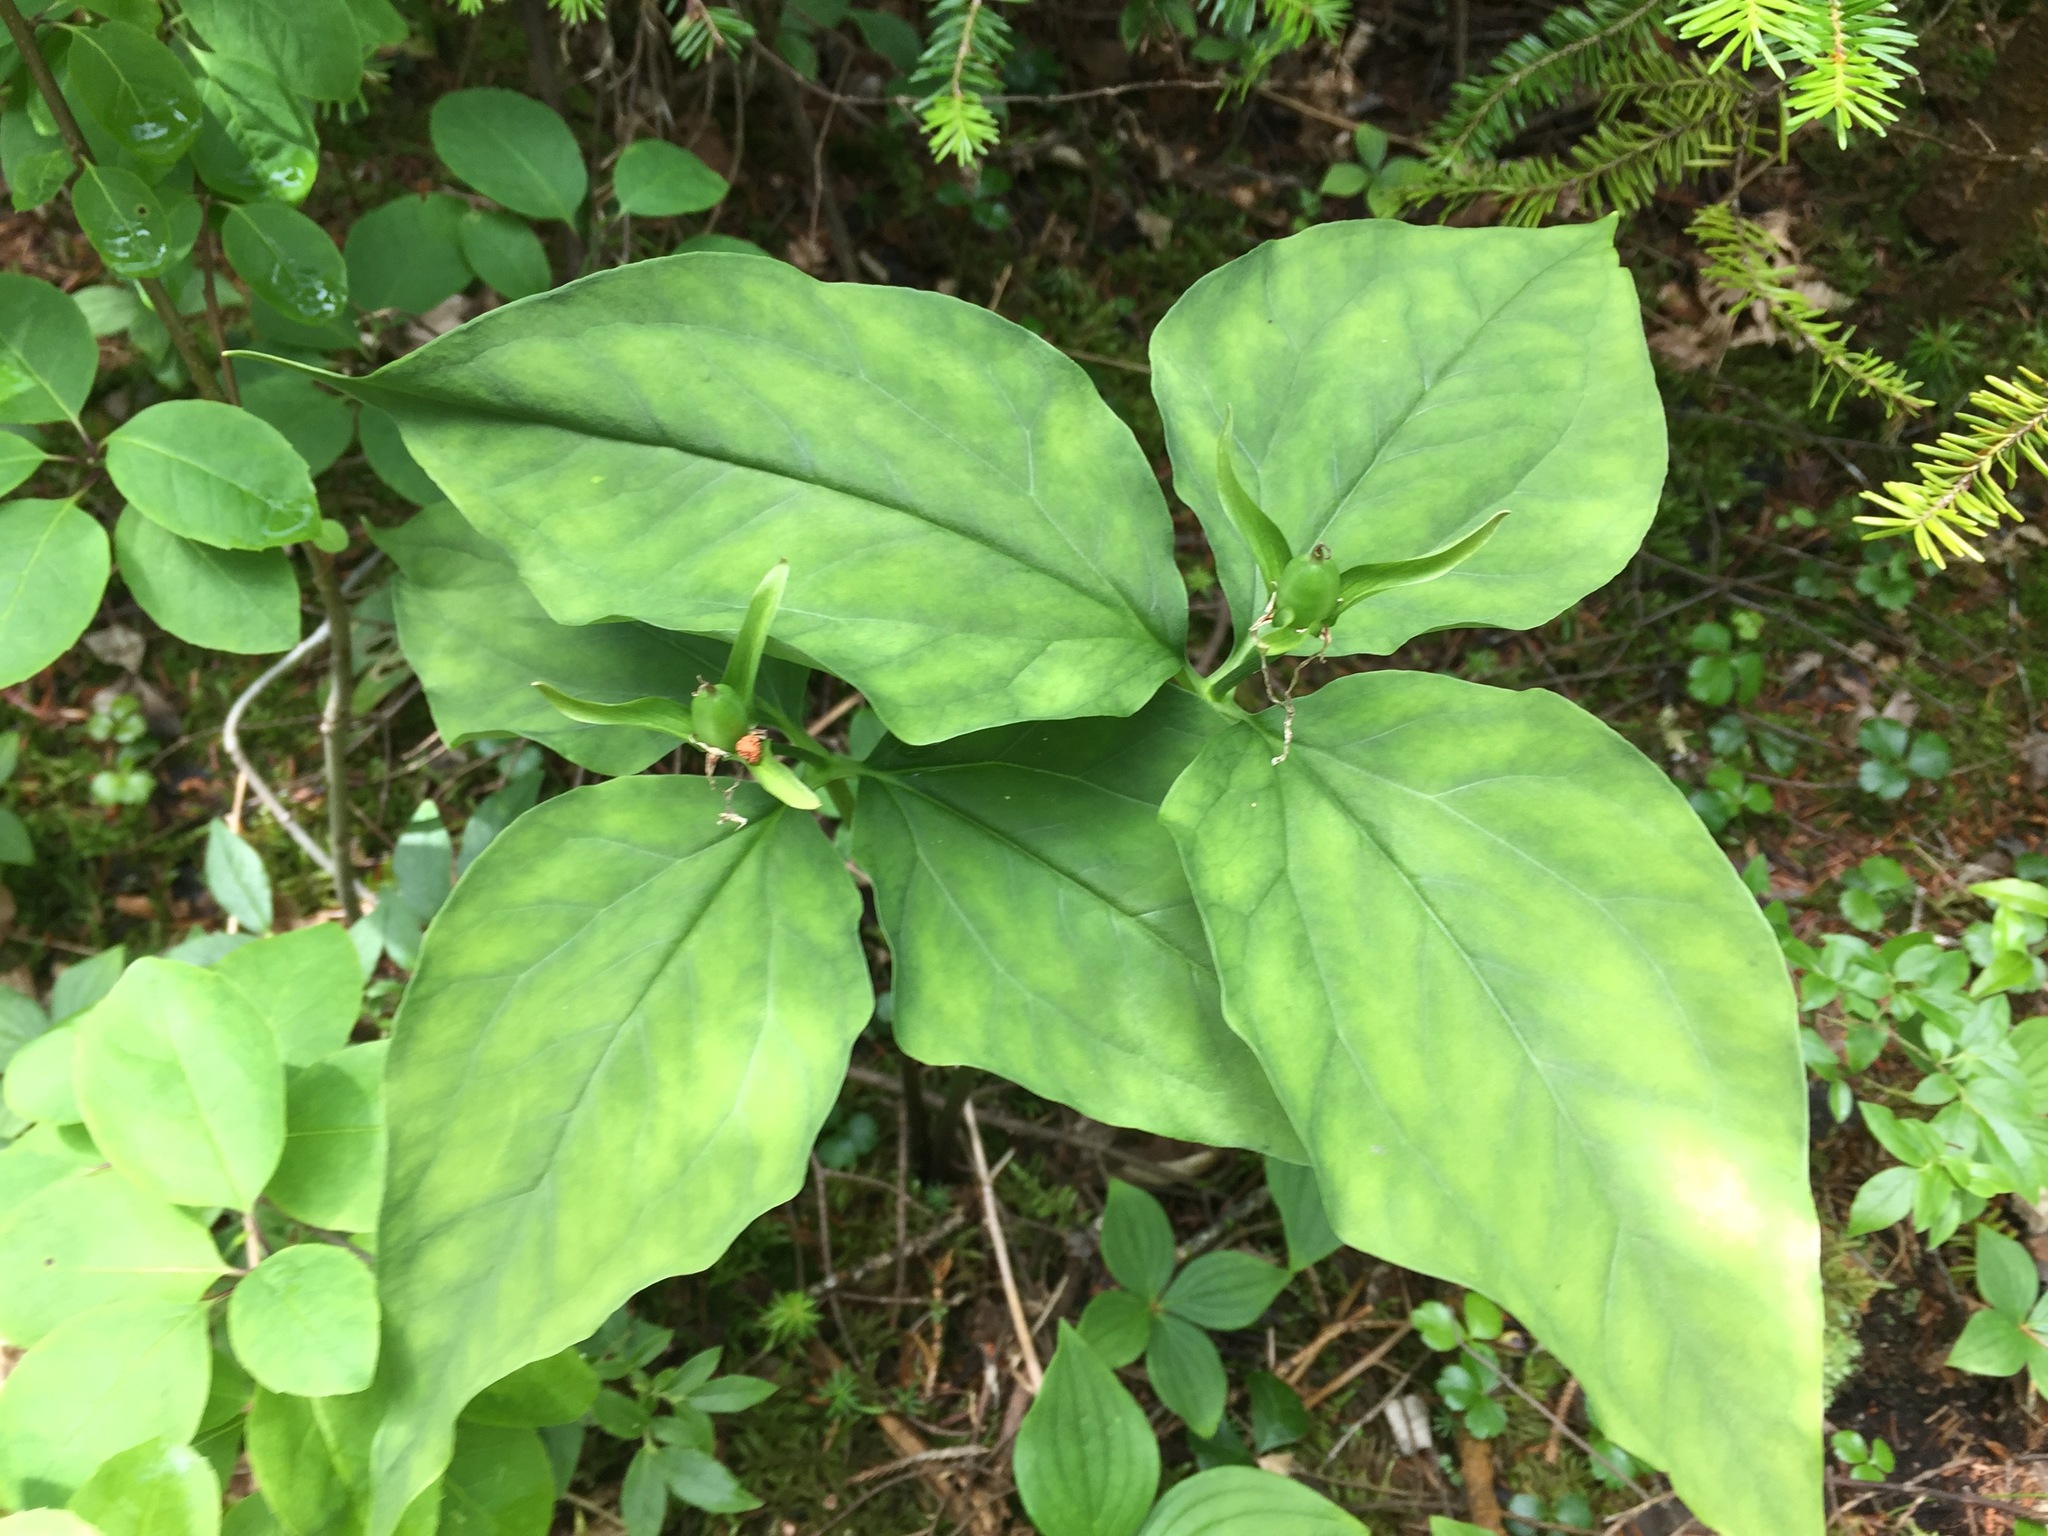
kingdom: Plantae
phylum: Tracheophyta
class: Liliopsida
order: Liliales
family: Melanthiaceae
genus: Trillium
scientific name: Trillium undulatum
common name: Paint trillium
